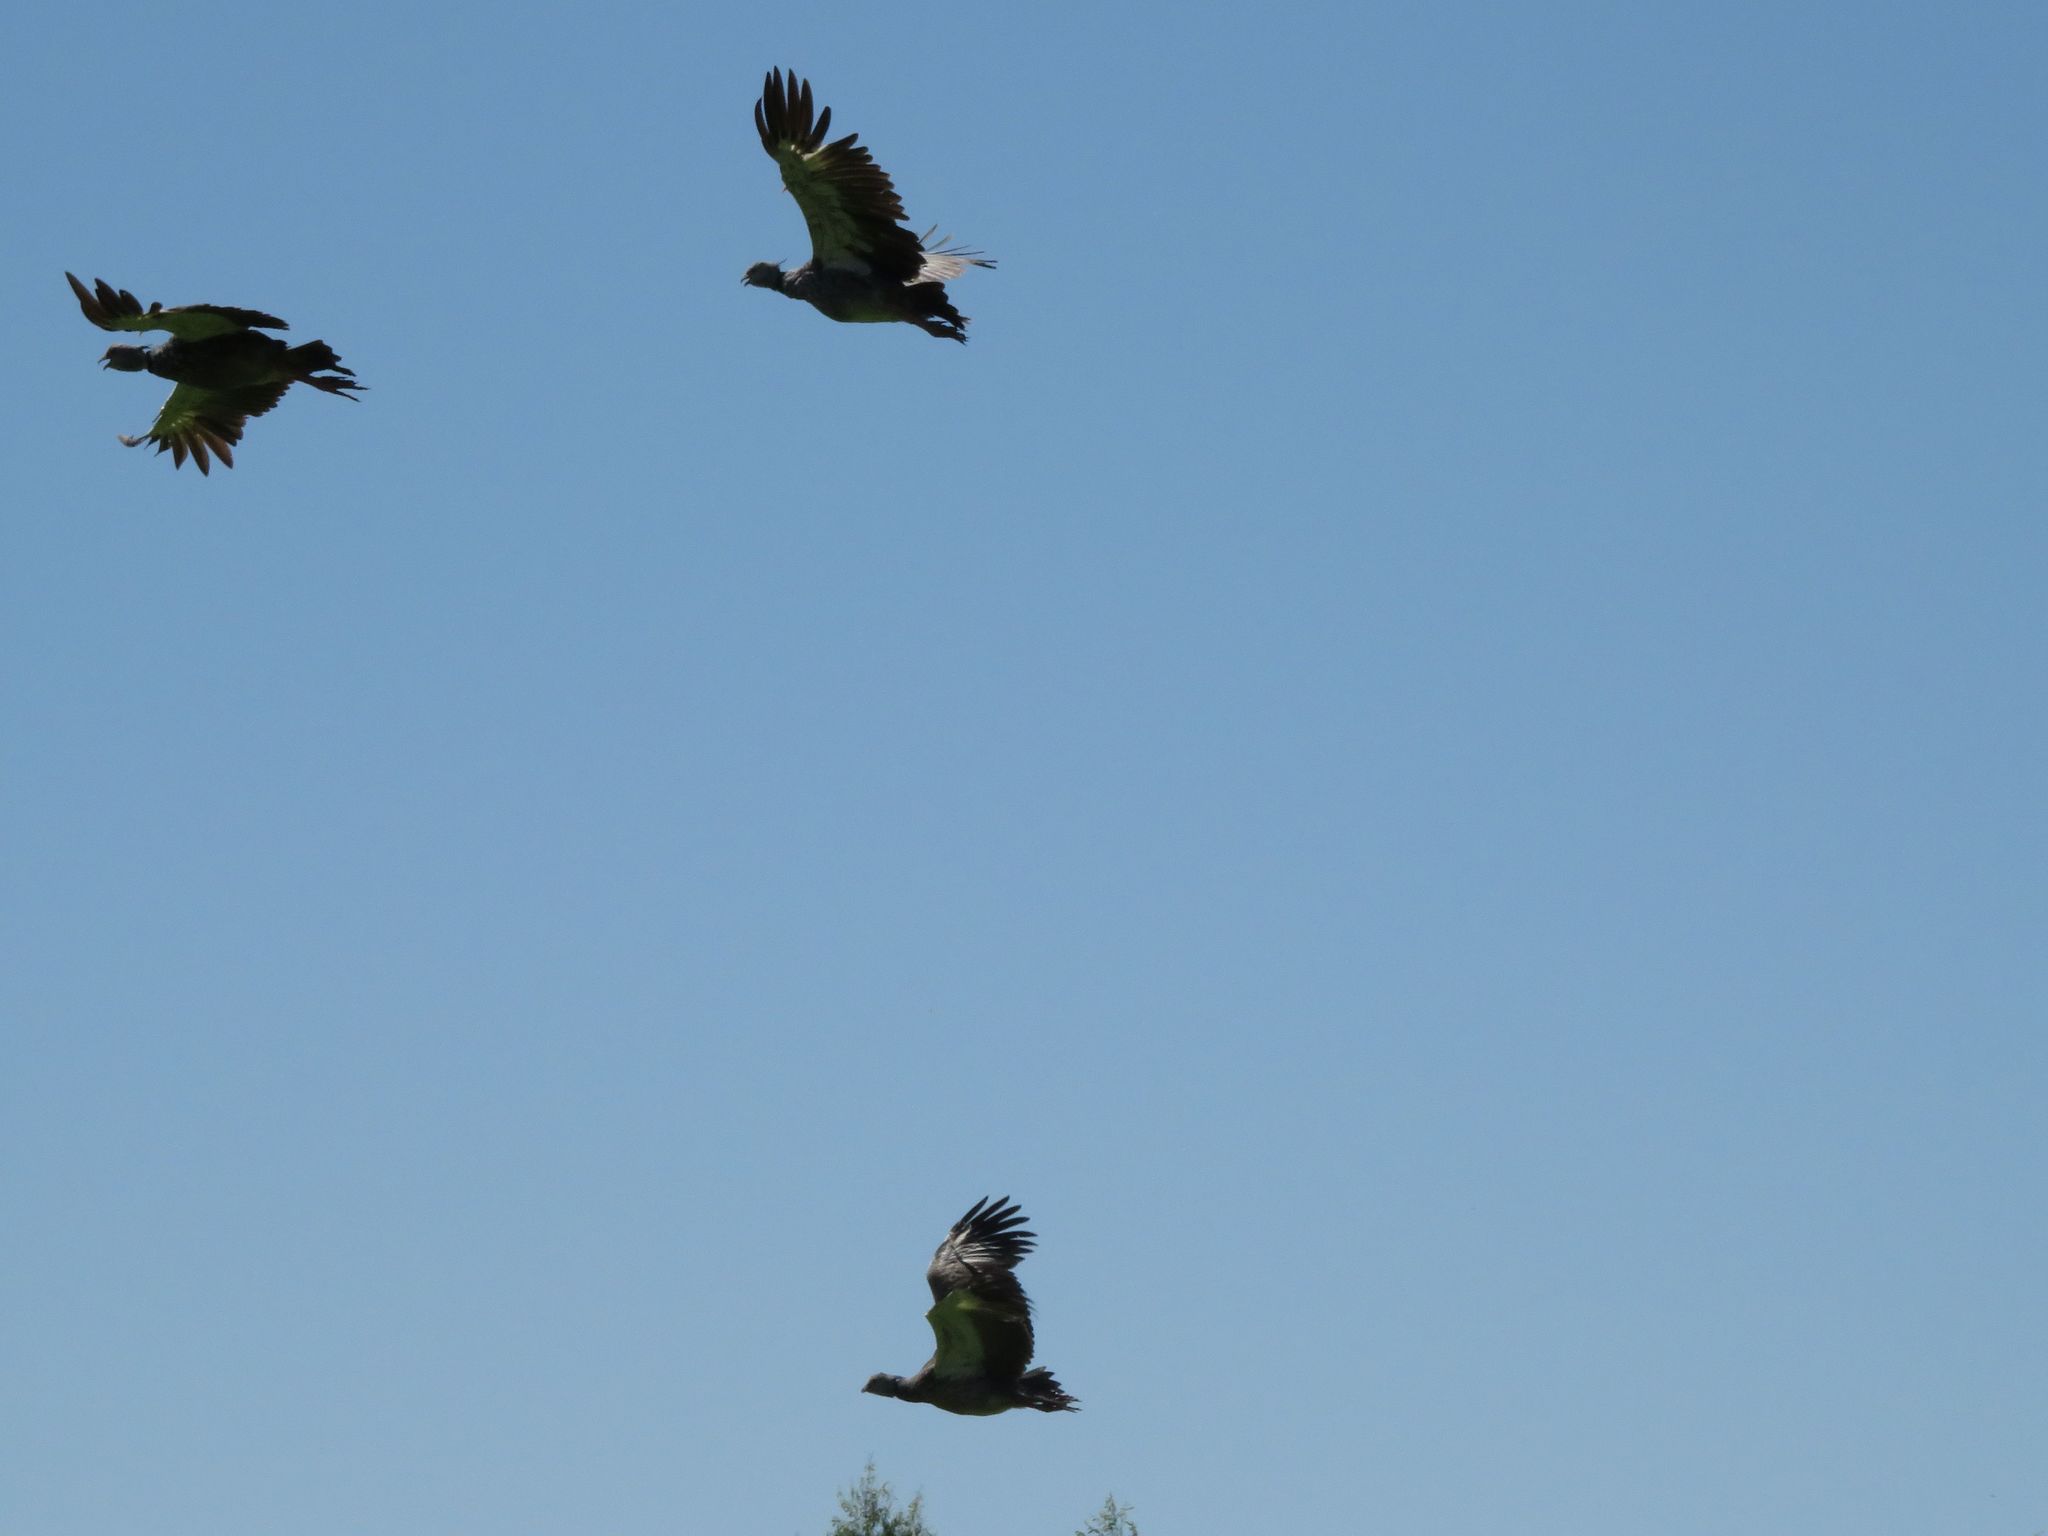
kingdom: Animalia
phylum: Chordata
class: Aves
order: Anseriformes
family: Anhimidae
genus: Chauna
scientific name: Chauna torquata
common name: Southern screamer
